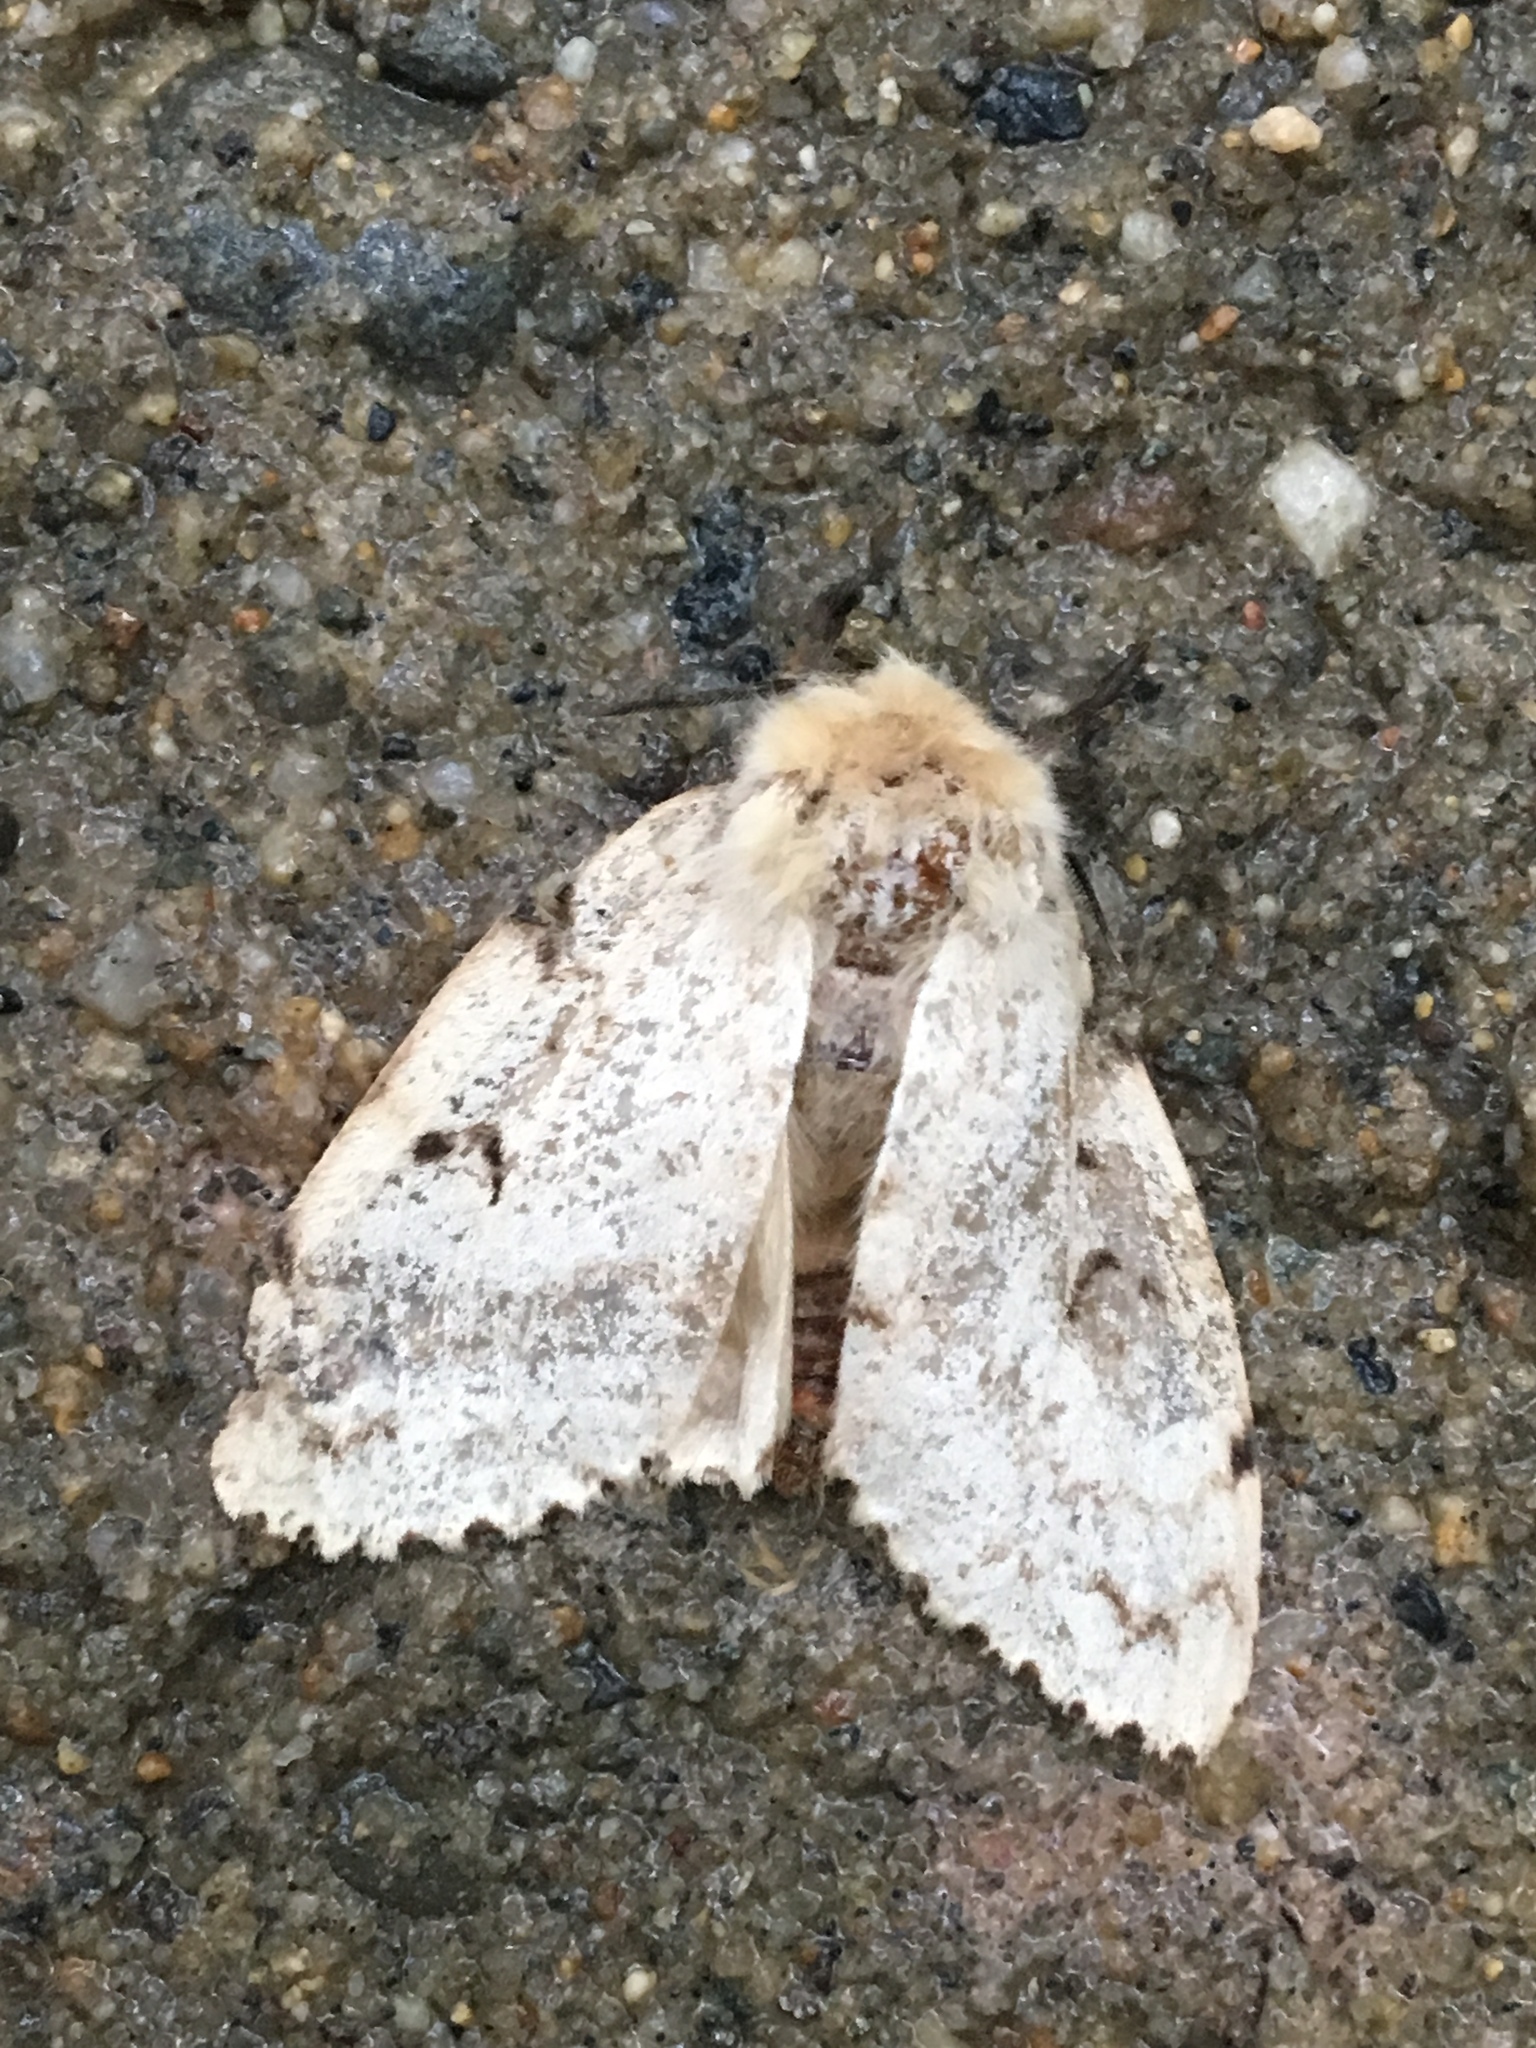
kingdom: Animalia
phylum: Arthropoda
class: Insecta
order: Lepidoptera
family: Erebidae
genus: Lymantria
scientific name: Lymantria dispar
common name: Gypsy moth
